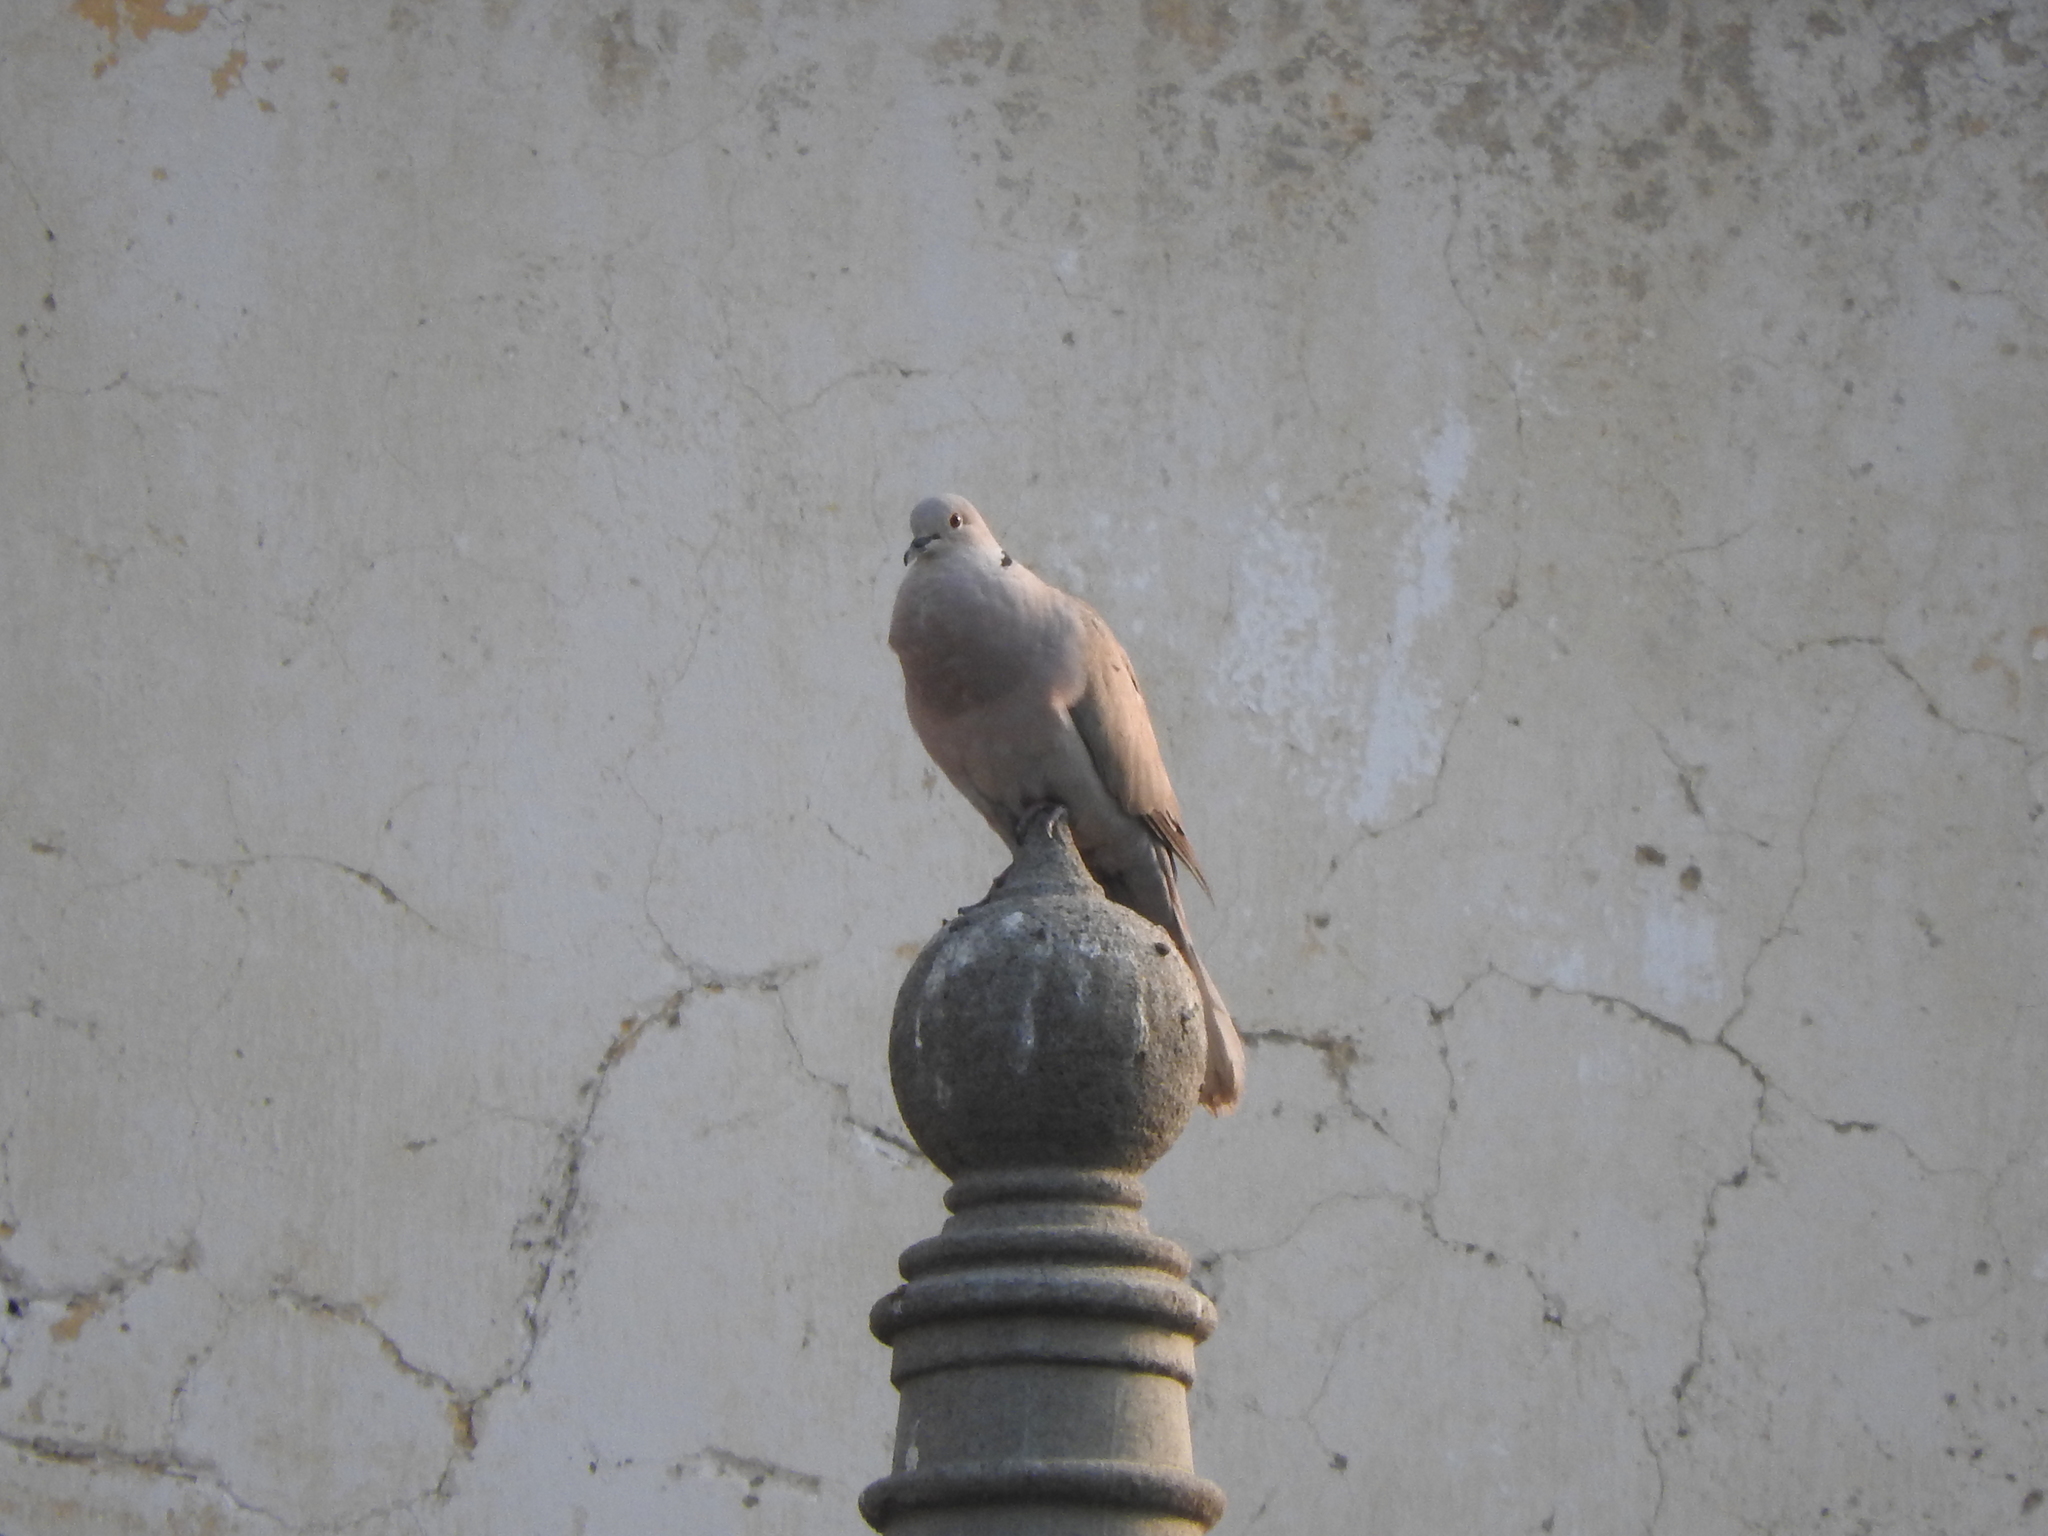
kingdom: Animalia
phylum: Chordata
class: Aves
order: Columbiformes
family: Columbidae
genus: Streptopelia
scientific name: Streptopelia decaocto
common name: Eurasian collared dove
